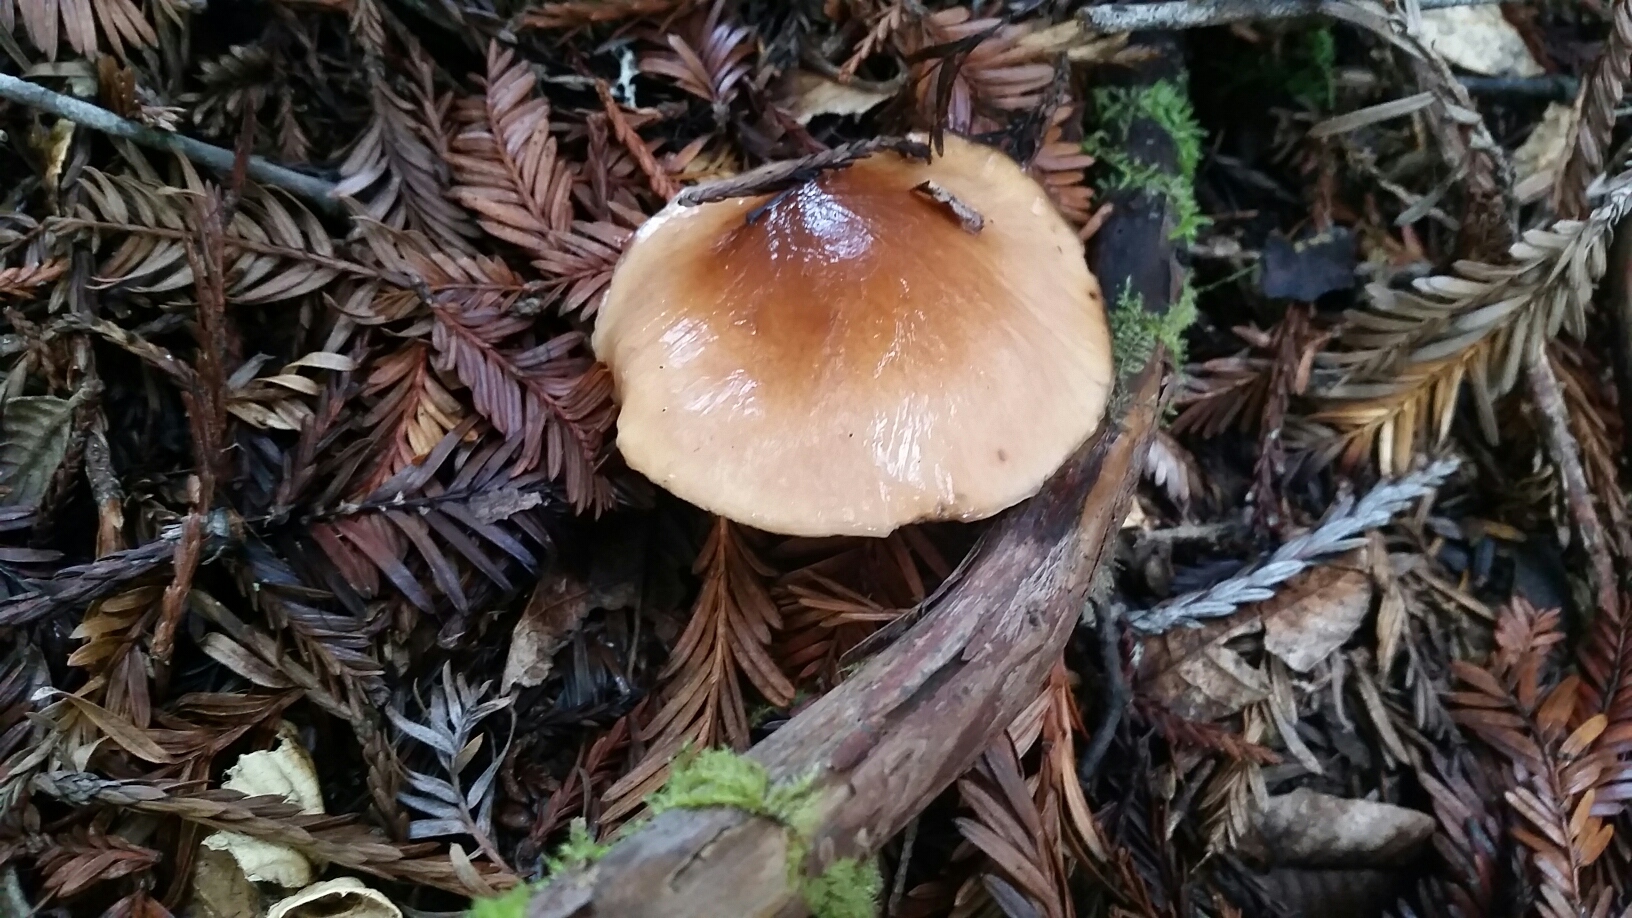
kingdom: Fungi
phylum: Basidiomycota
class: Agaricomycetes
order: Agaricales
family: Tricholomataceae
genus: Caulorhiza
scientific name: Caulorhiza umbonata
